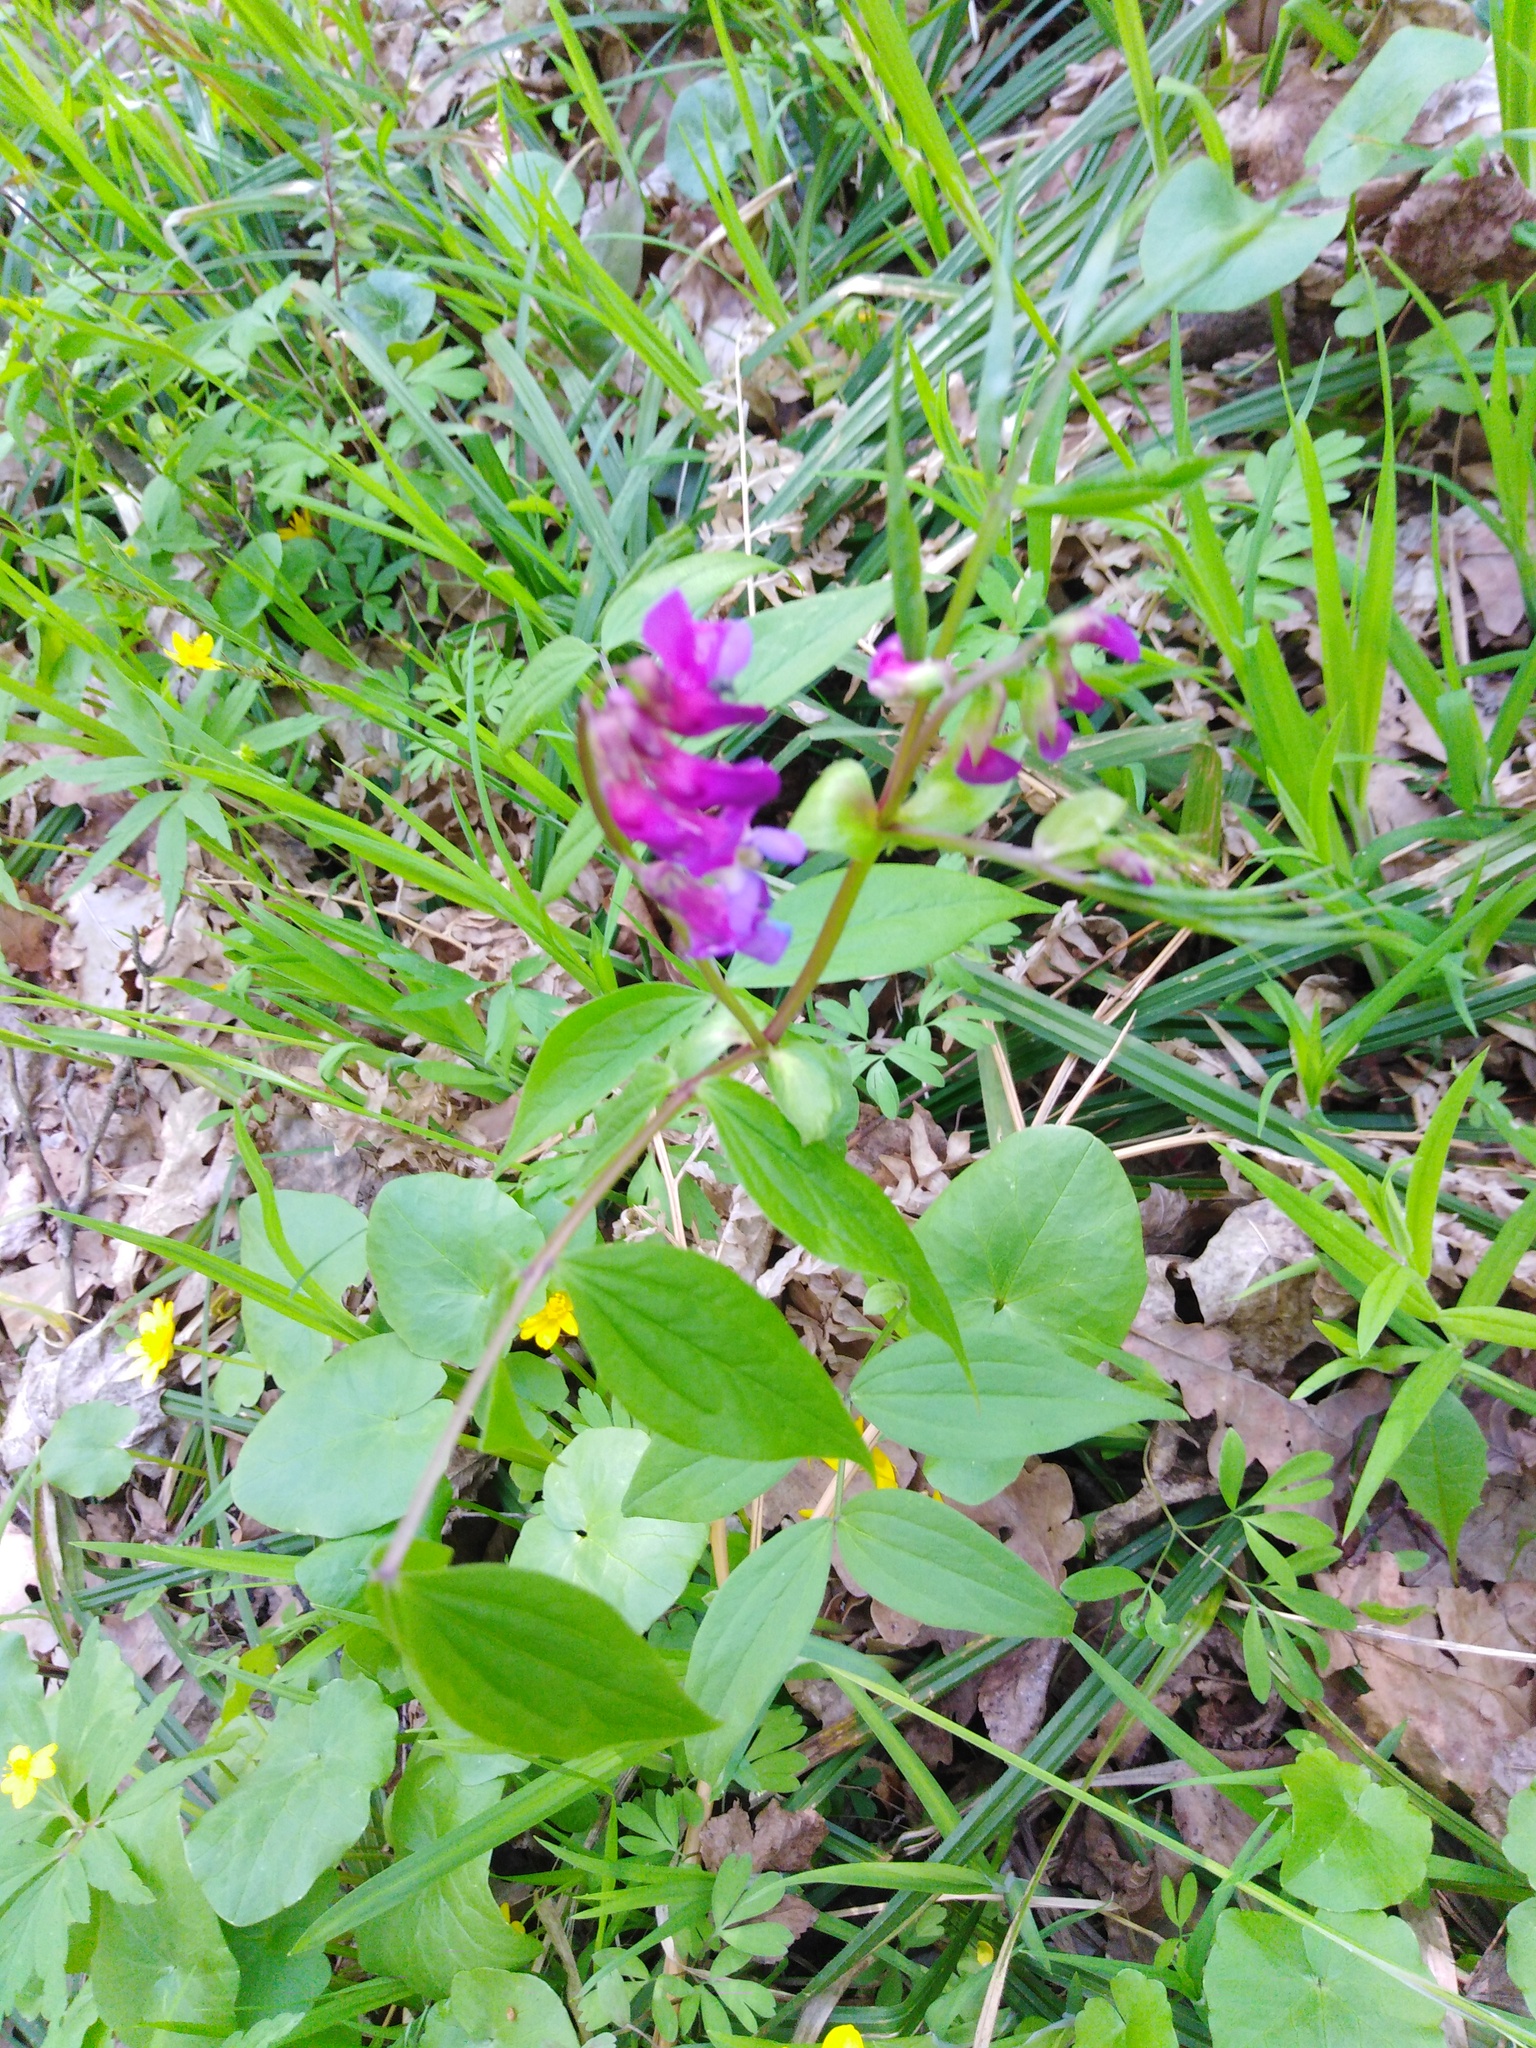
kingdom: Plantae
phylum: Tracheophyta
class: Magnoliopsida
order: Fabales
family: Fabaceae
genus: Lathyrus
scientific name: Lathyrus vernus
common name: Spring pea
